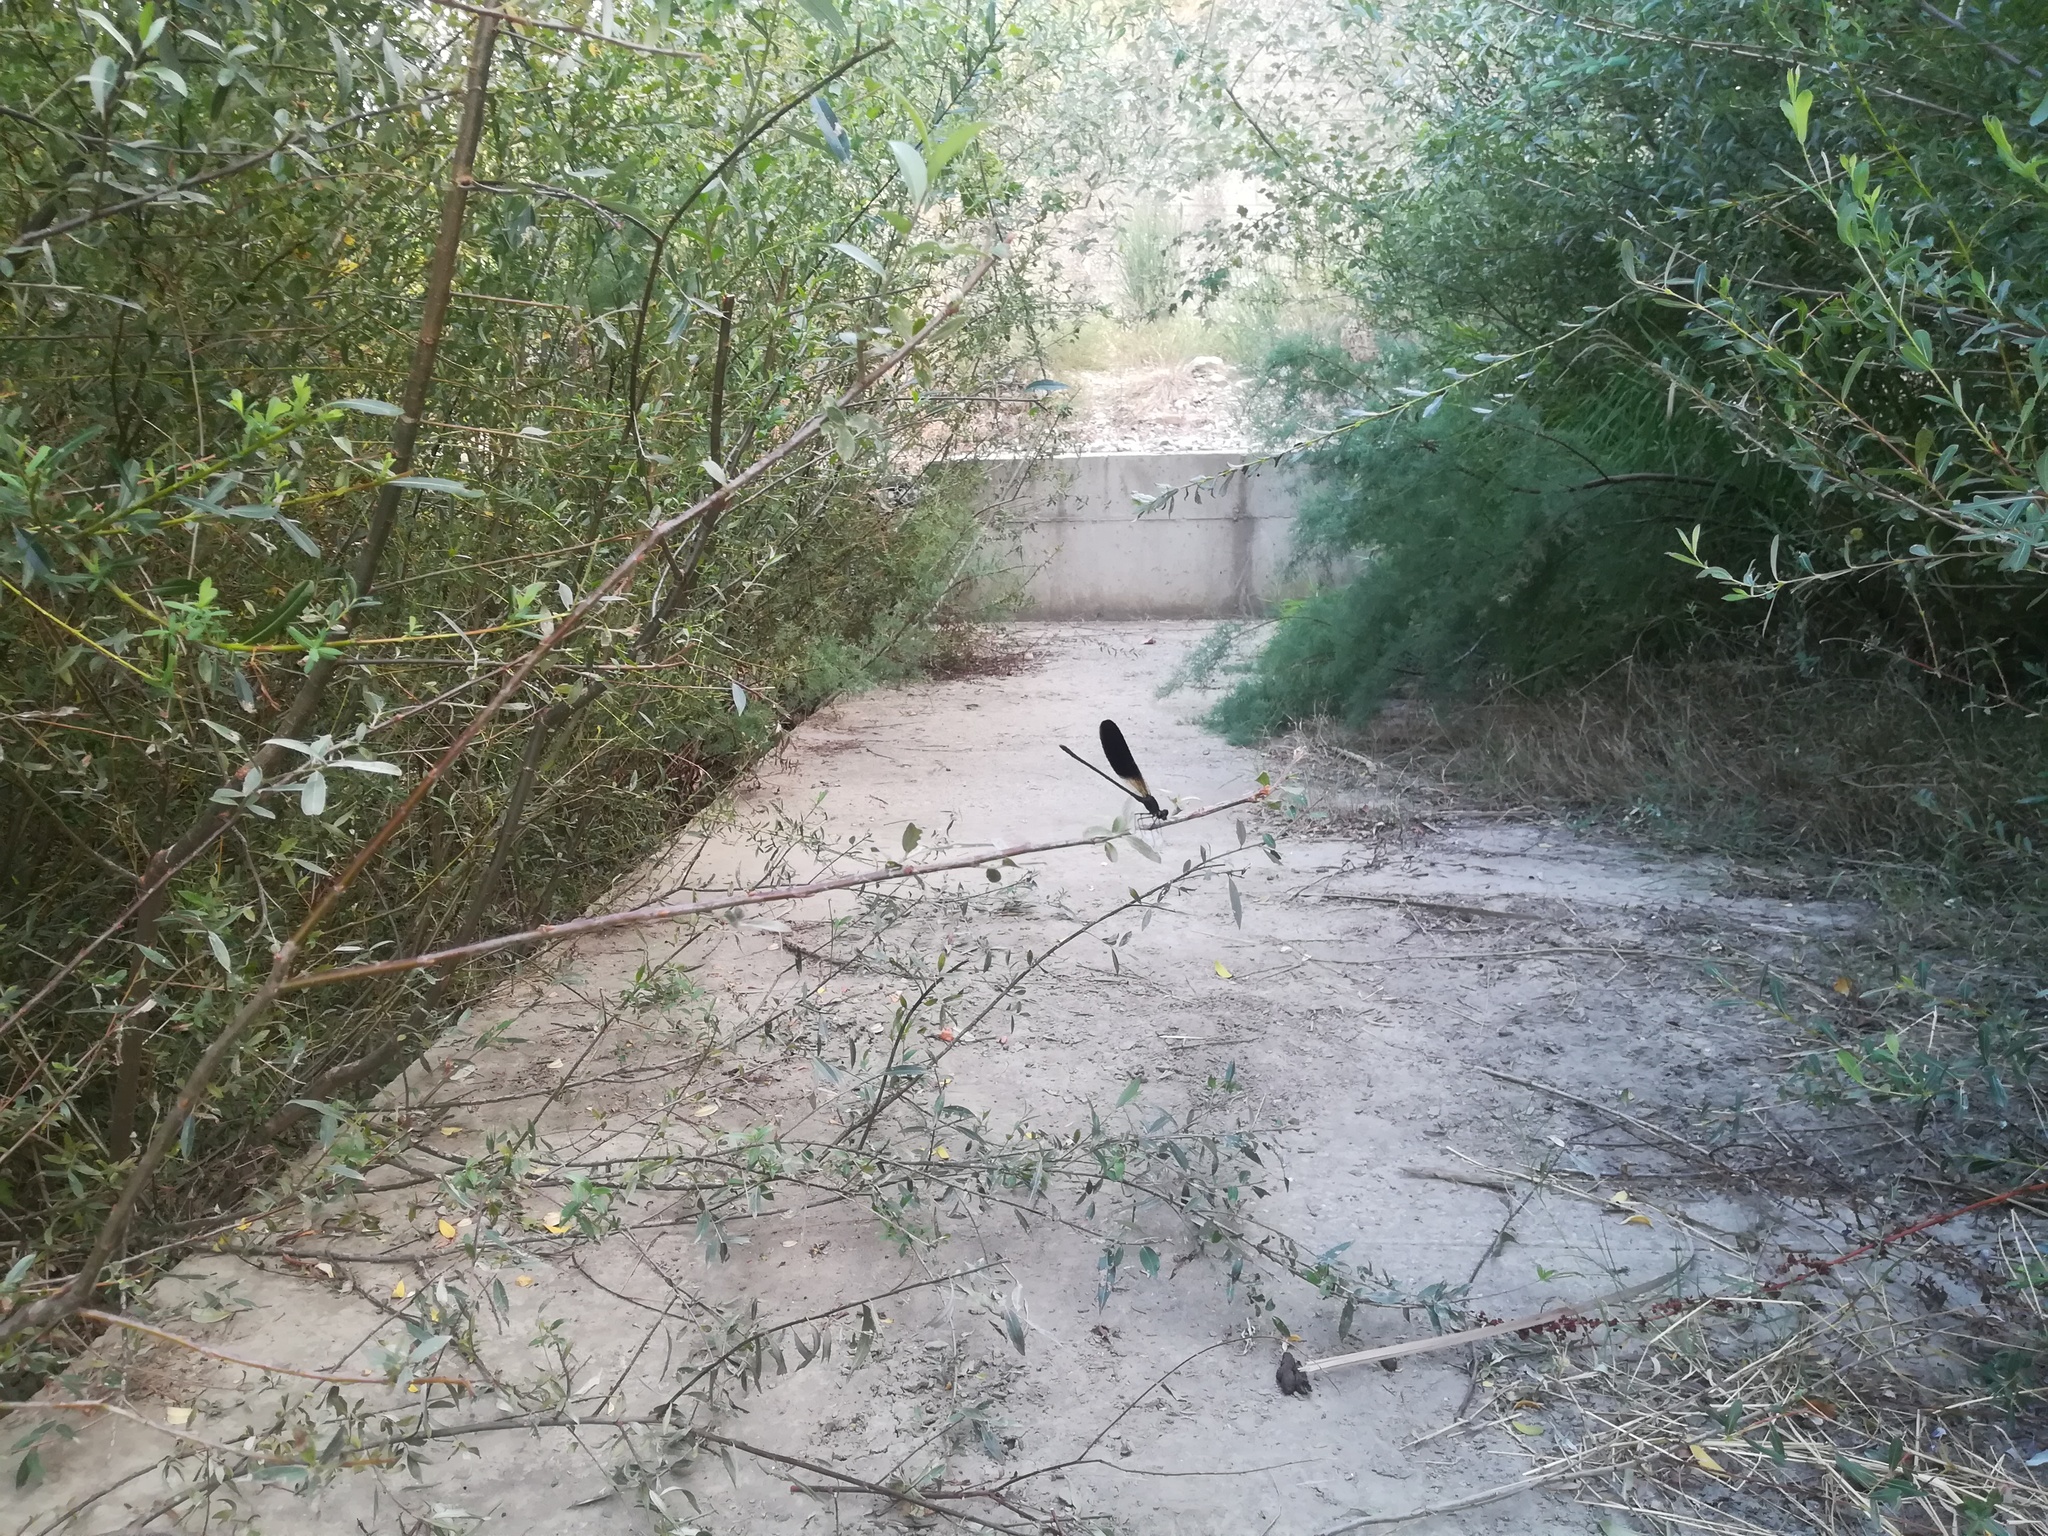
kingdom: Animalia
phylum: Arthropoda
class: Insecta
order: Odonata
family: Calopterygidae
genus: Calopteryx
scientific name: Calopteryx haemorrhoidalis
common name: Copper demoiselle
